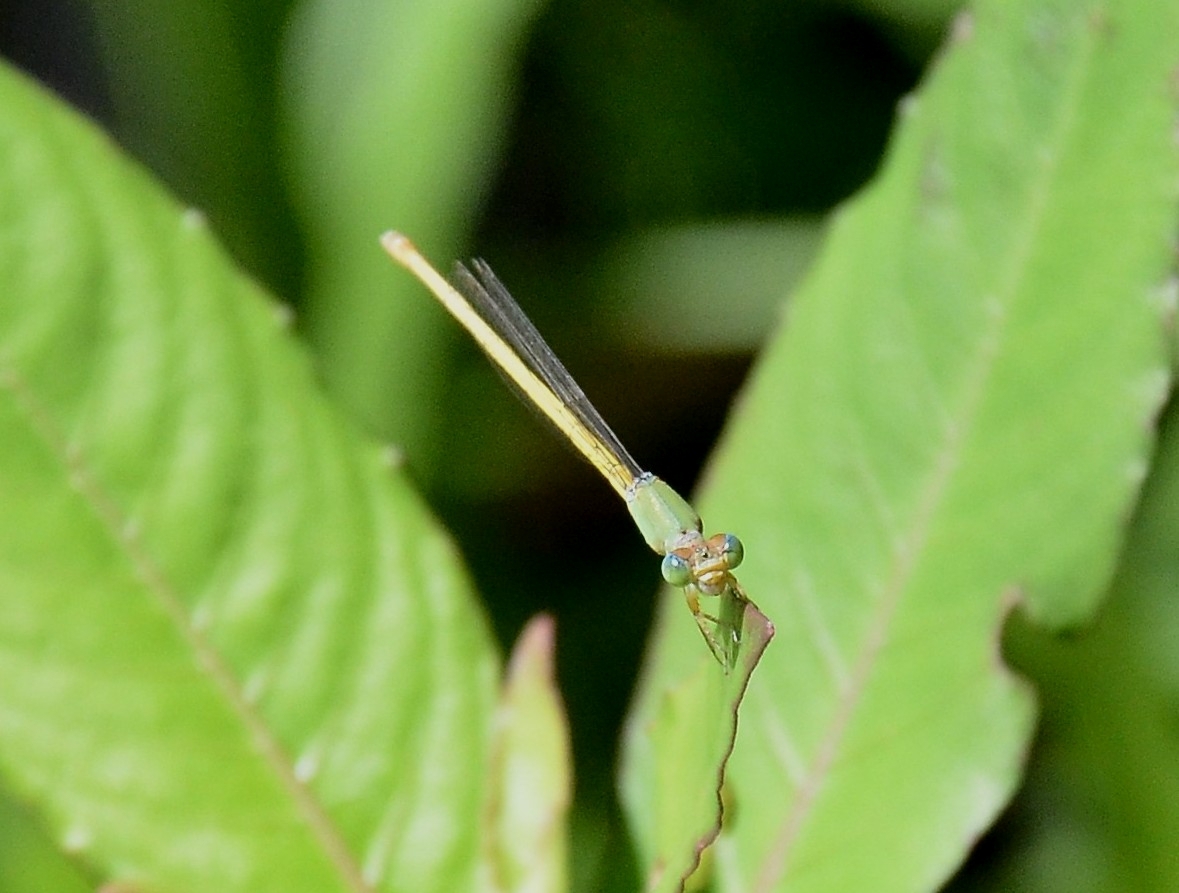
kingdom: Animalia
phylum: Arthropoda
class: Insecta
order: Odonata
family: Coenagrionidae
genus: Ceriagrion
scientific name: Ceriagrion coromandelianum
